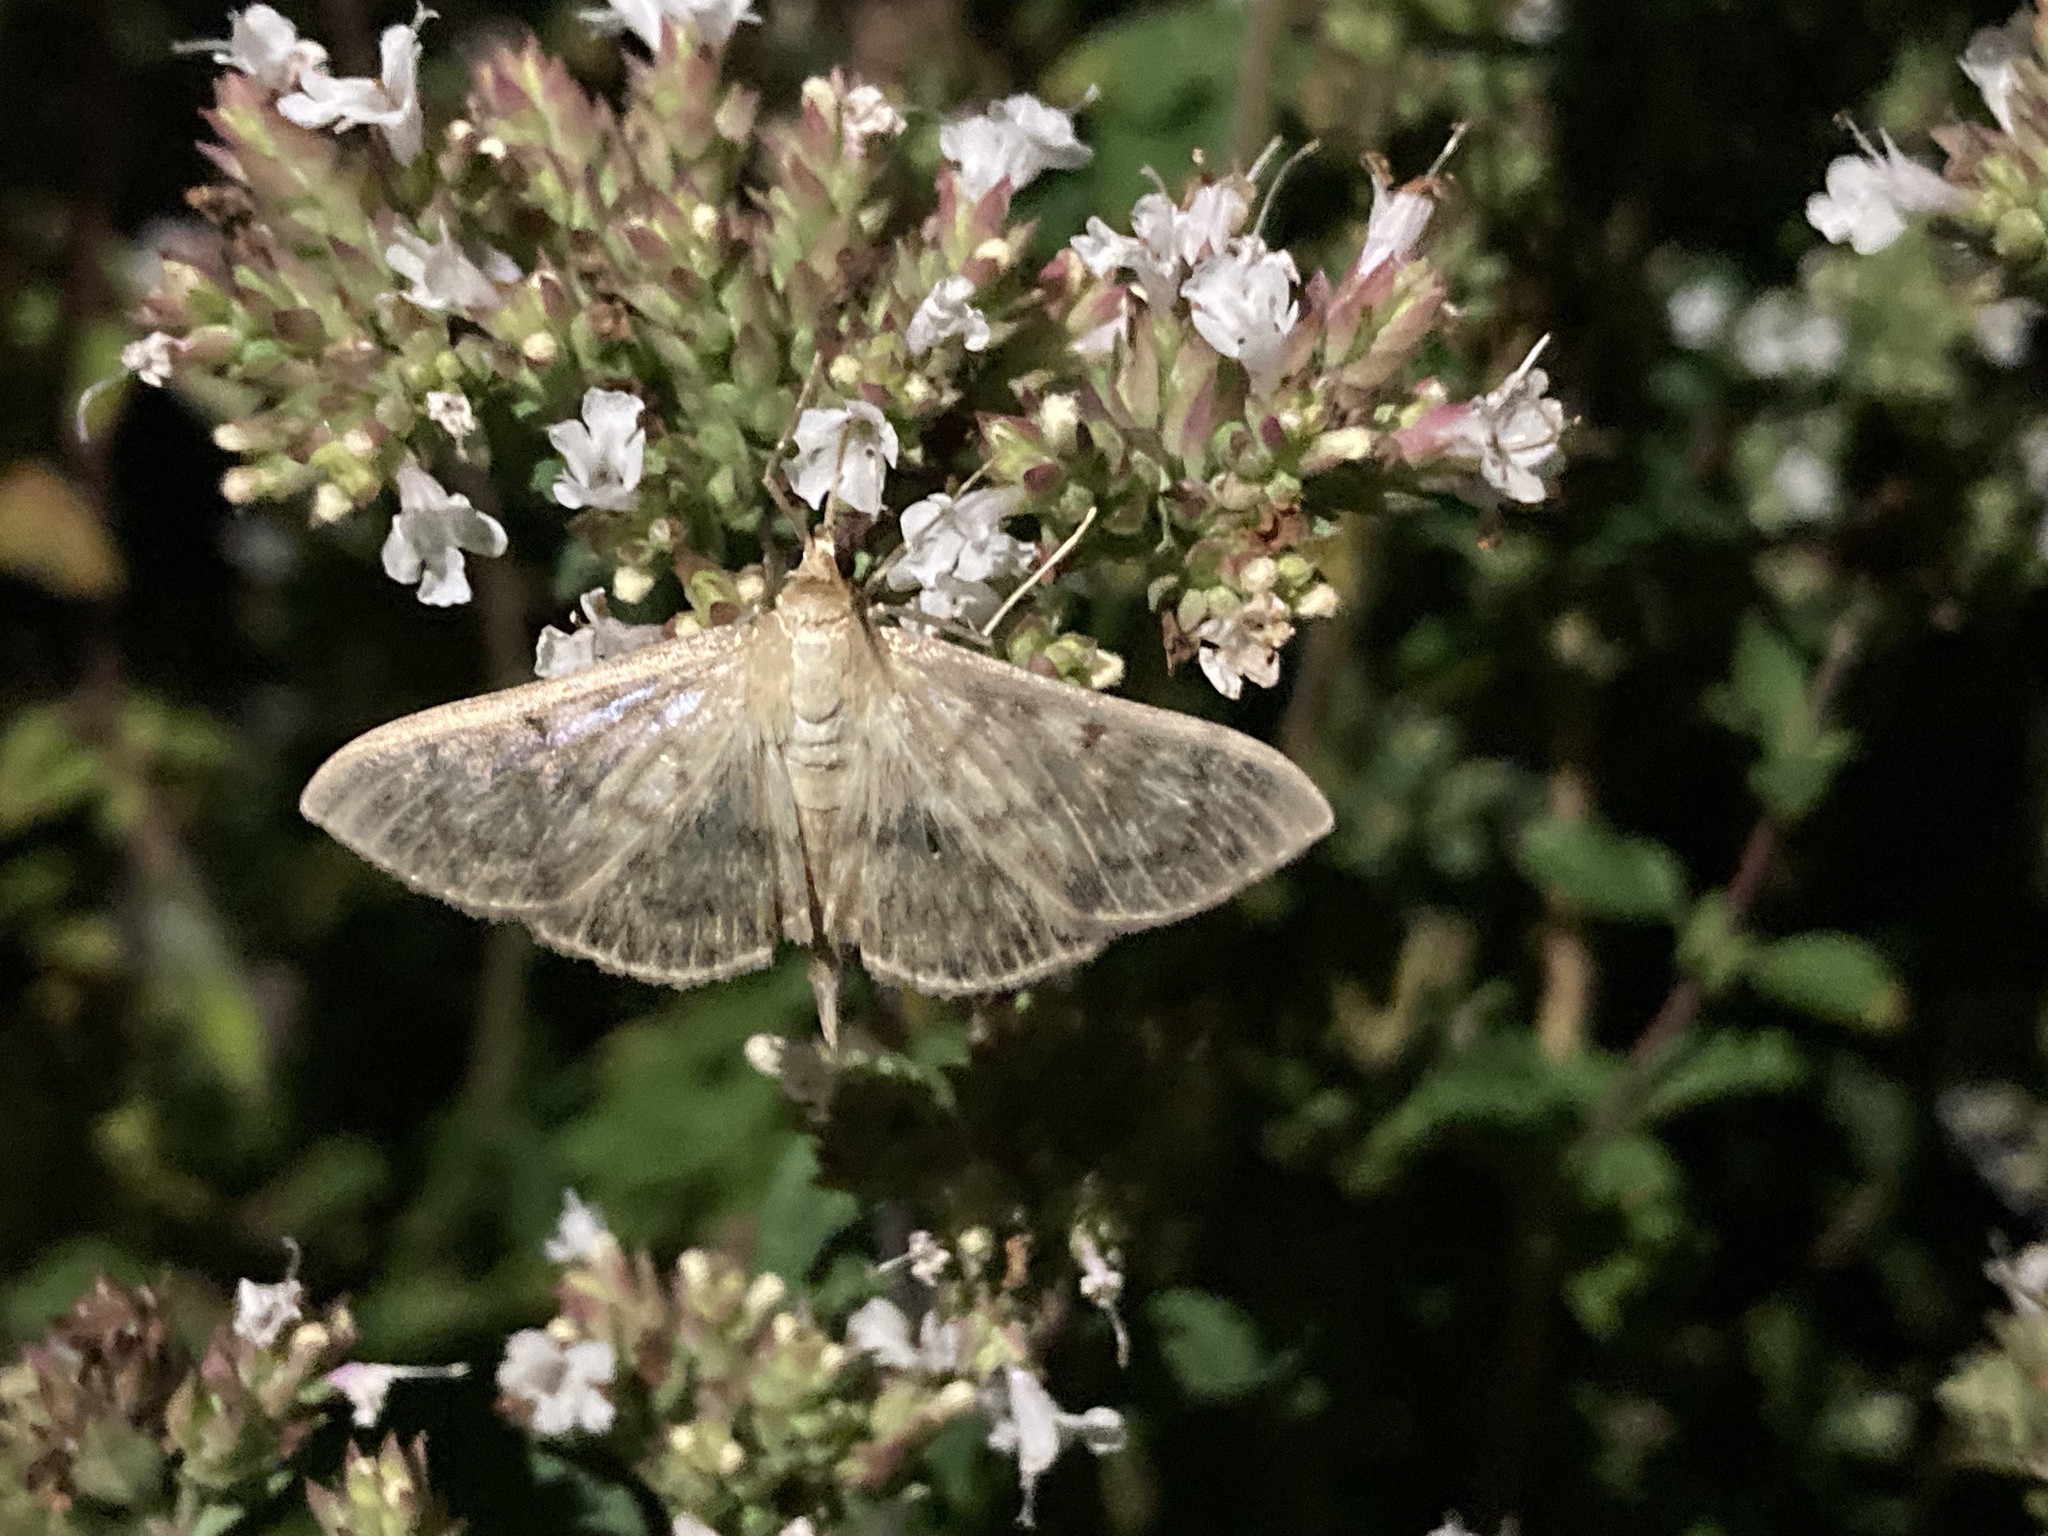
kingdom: Animalia
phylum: Arthropoda
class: Insecta
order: Lepidoptera
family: Crambidae
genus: Patania
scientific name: Patania ruralis
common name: Mother of pearl
